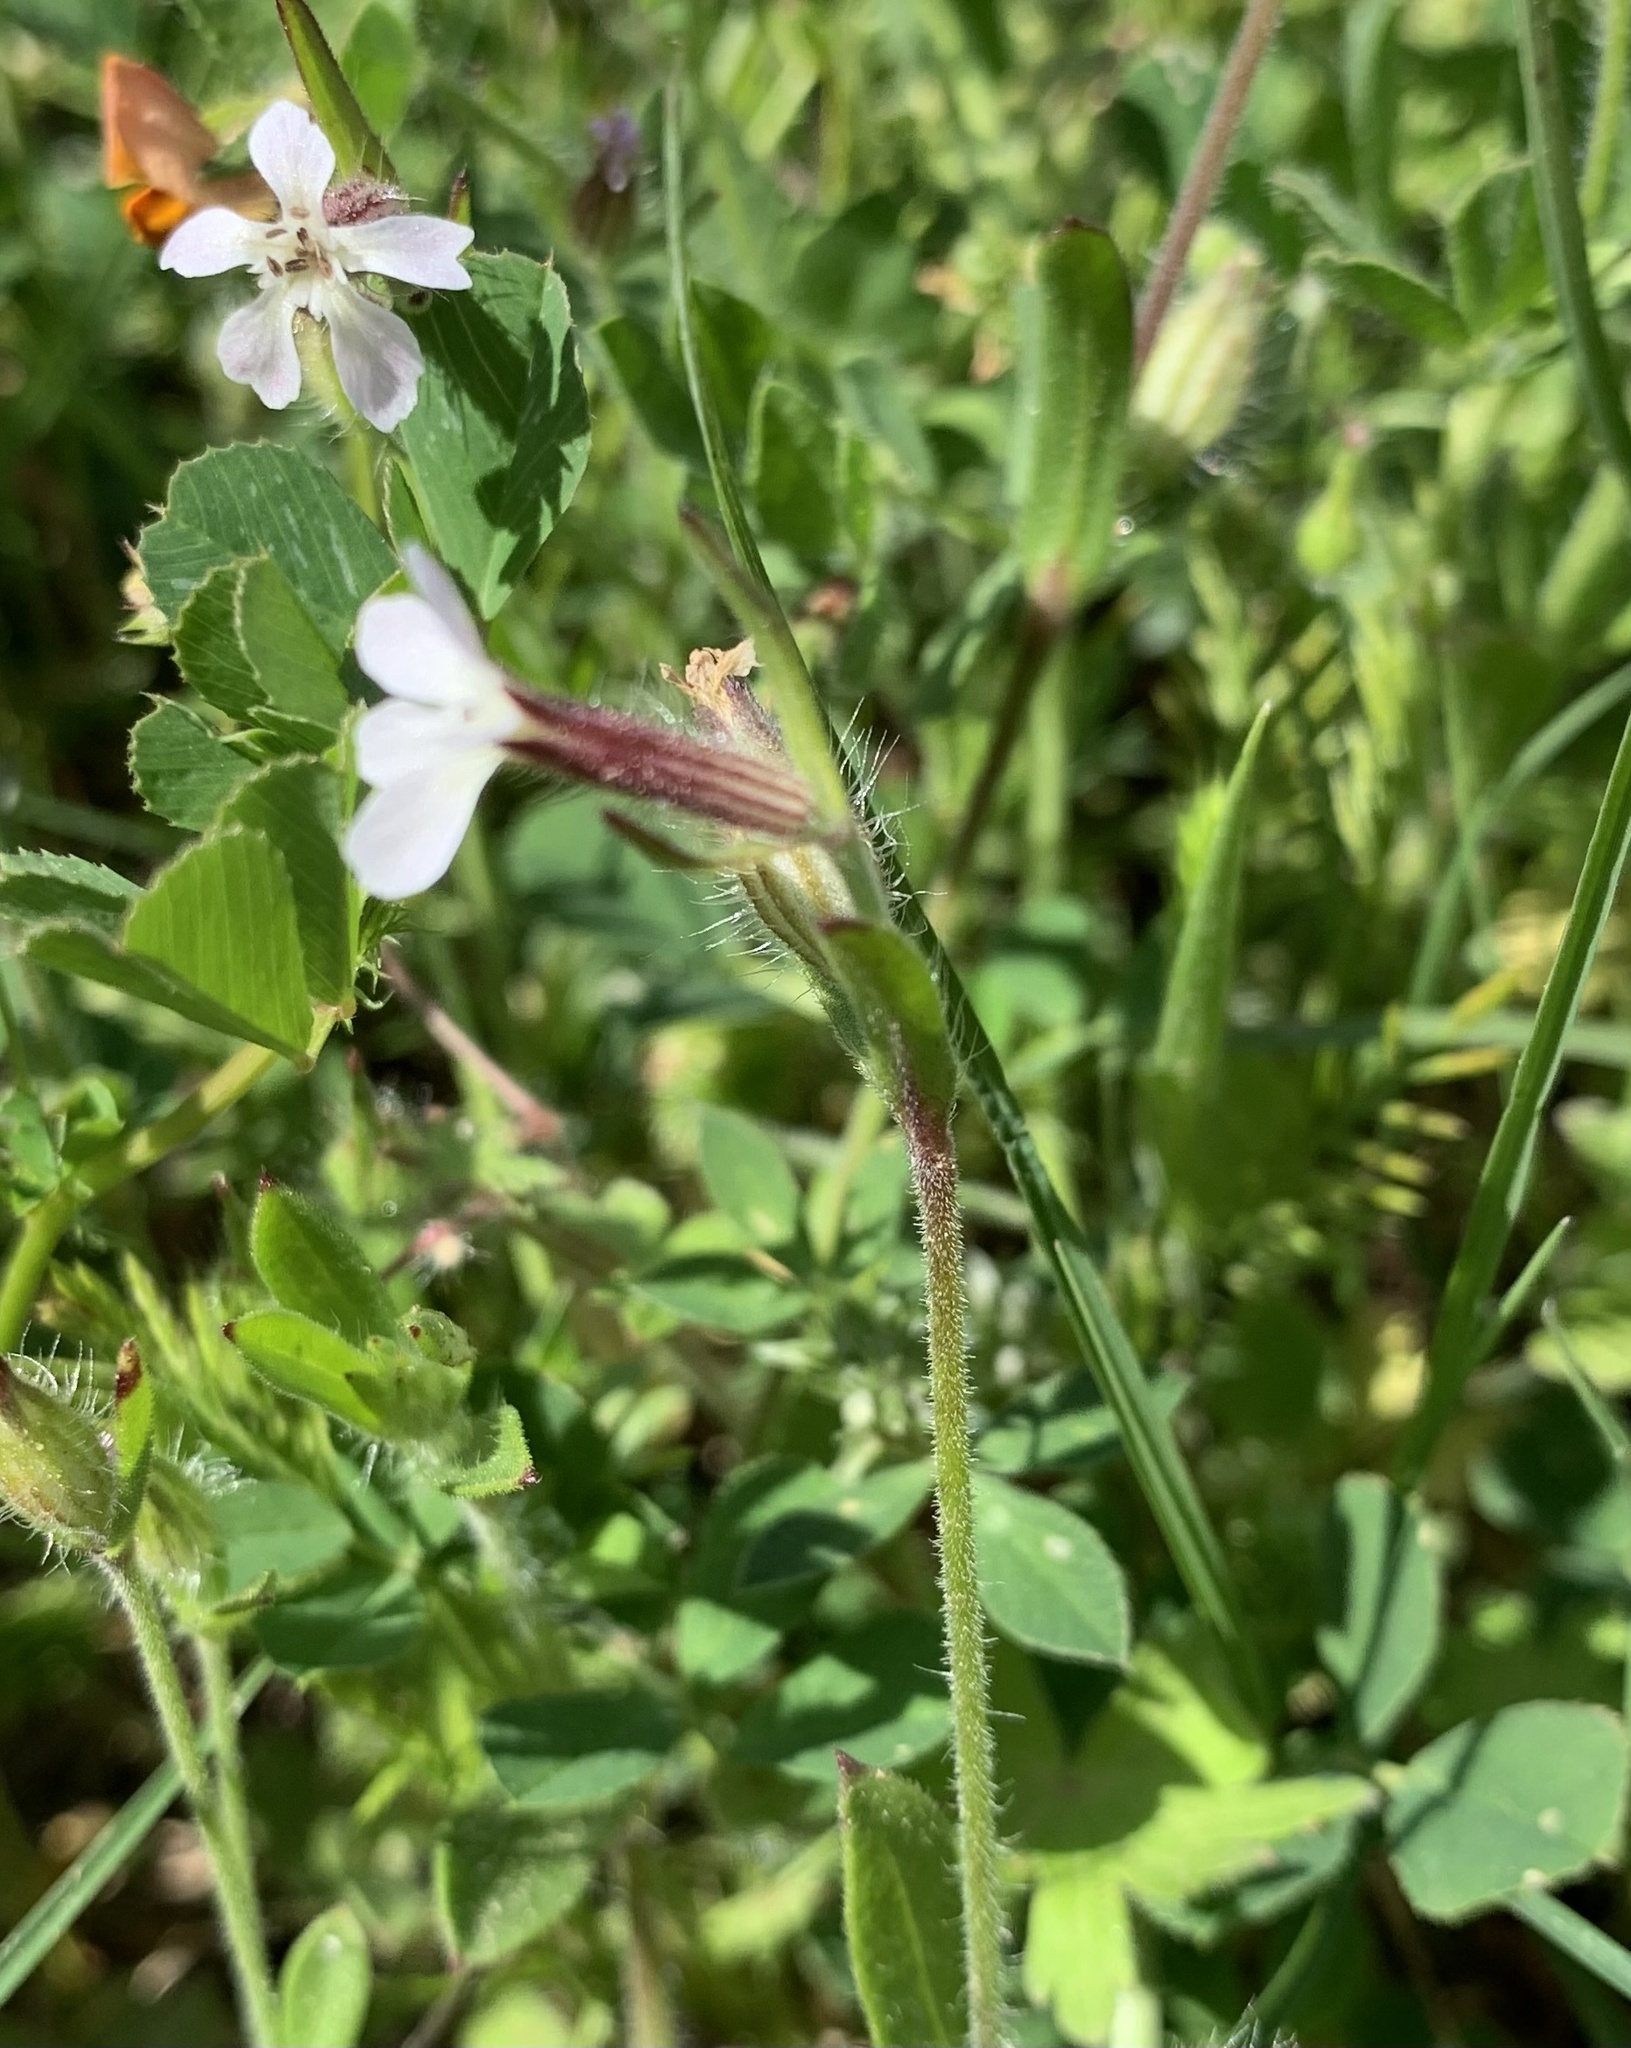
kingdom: Plantae
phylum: Tracheophyta
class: Magnoliopsida
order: Caryophyllales
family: Caryophyllaceae
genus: Silene
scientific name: Silene gallica
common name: Small-flowered catchfly
